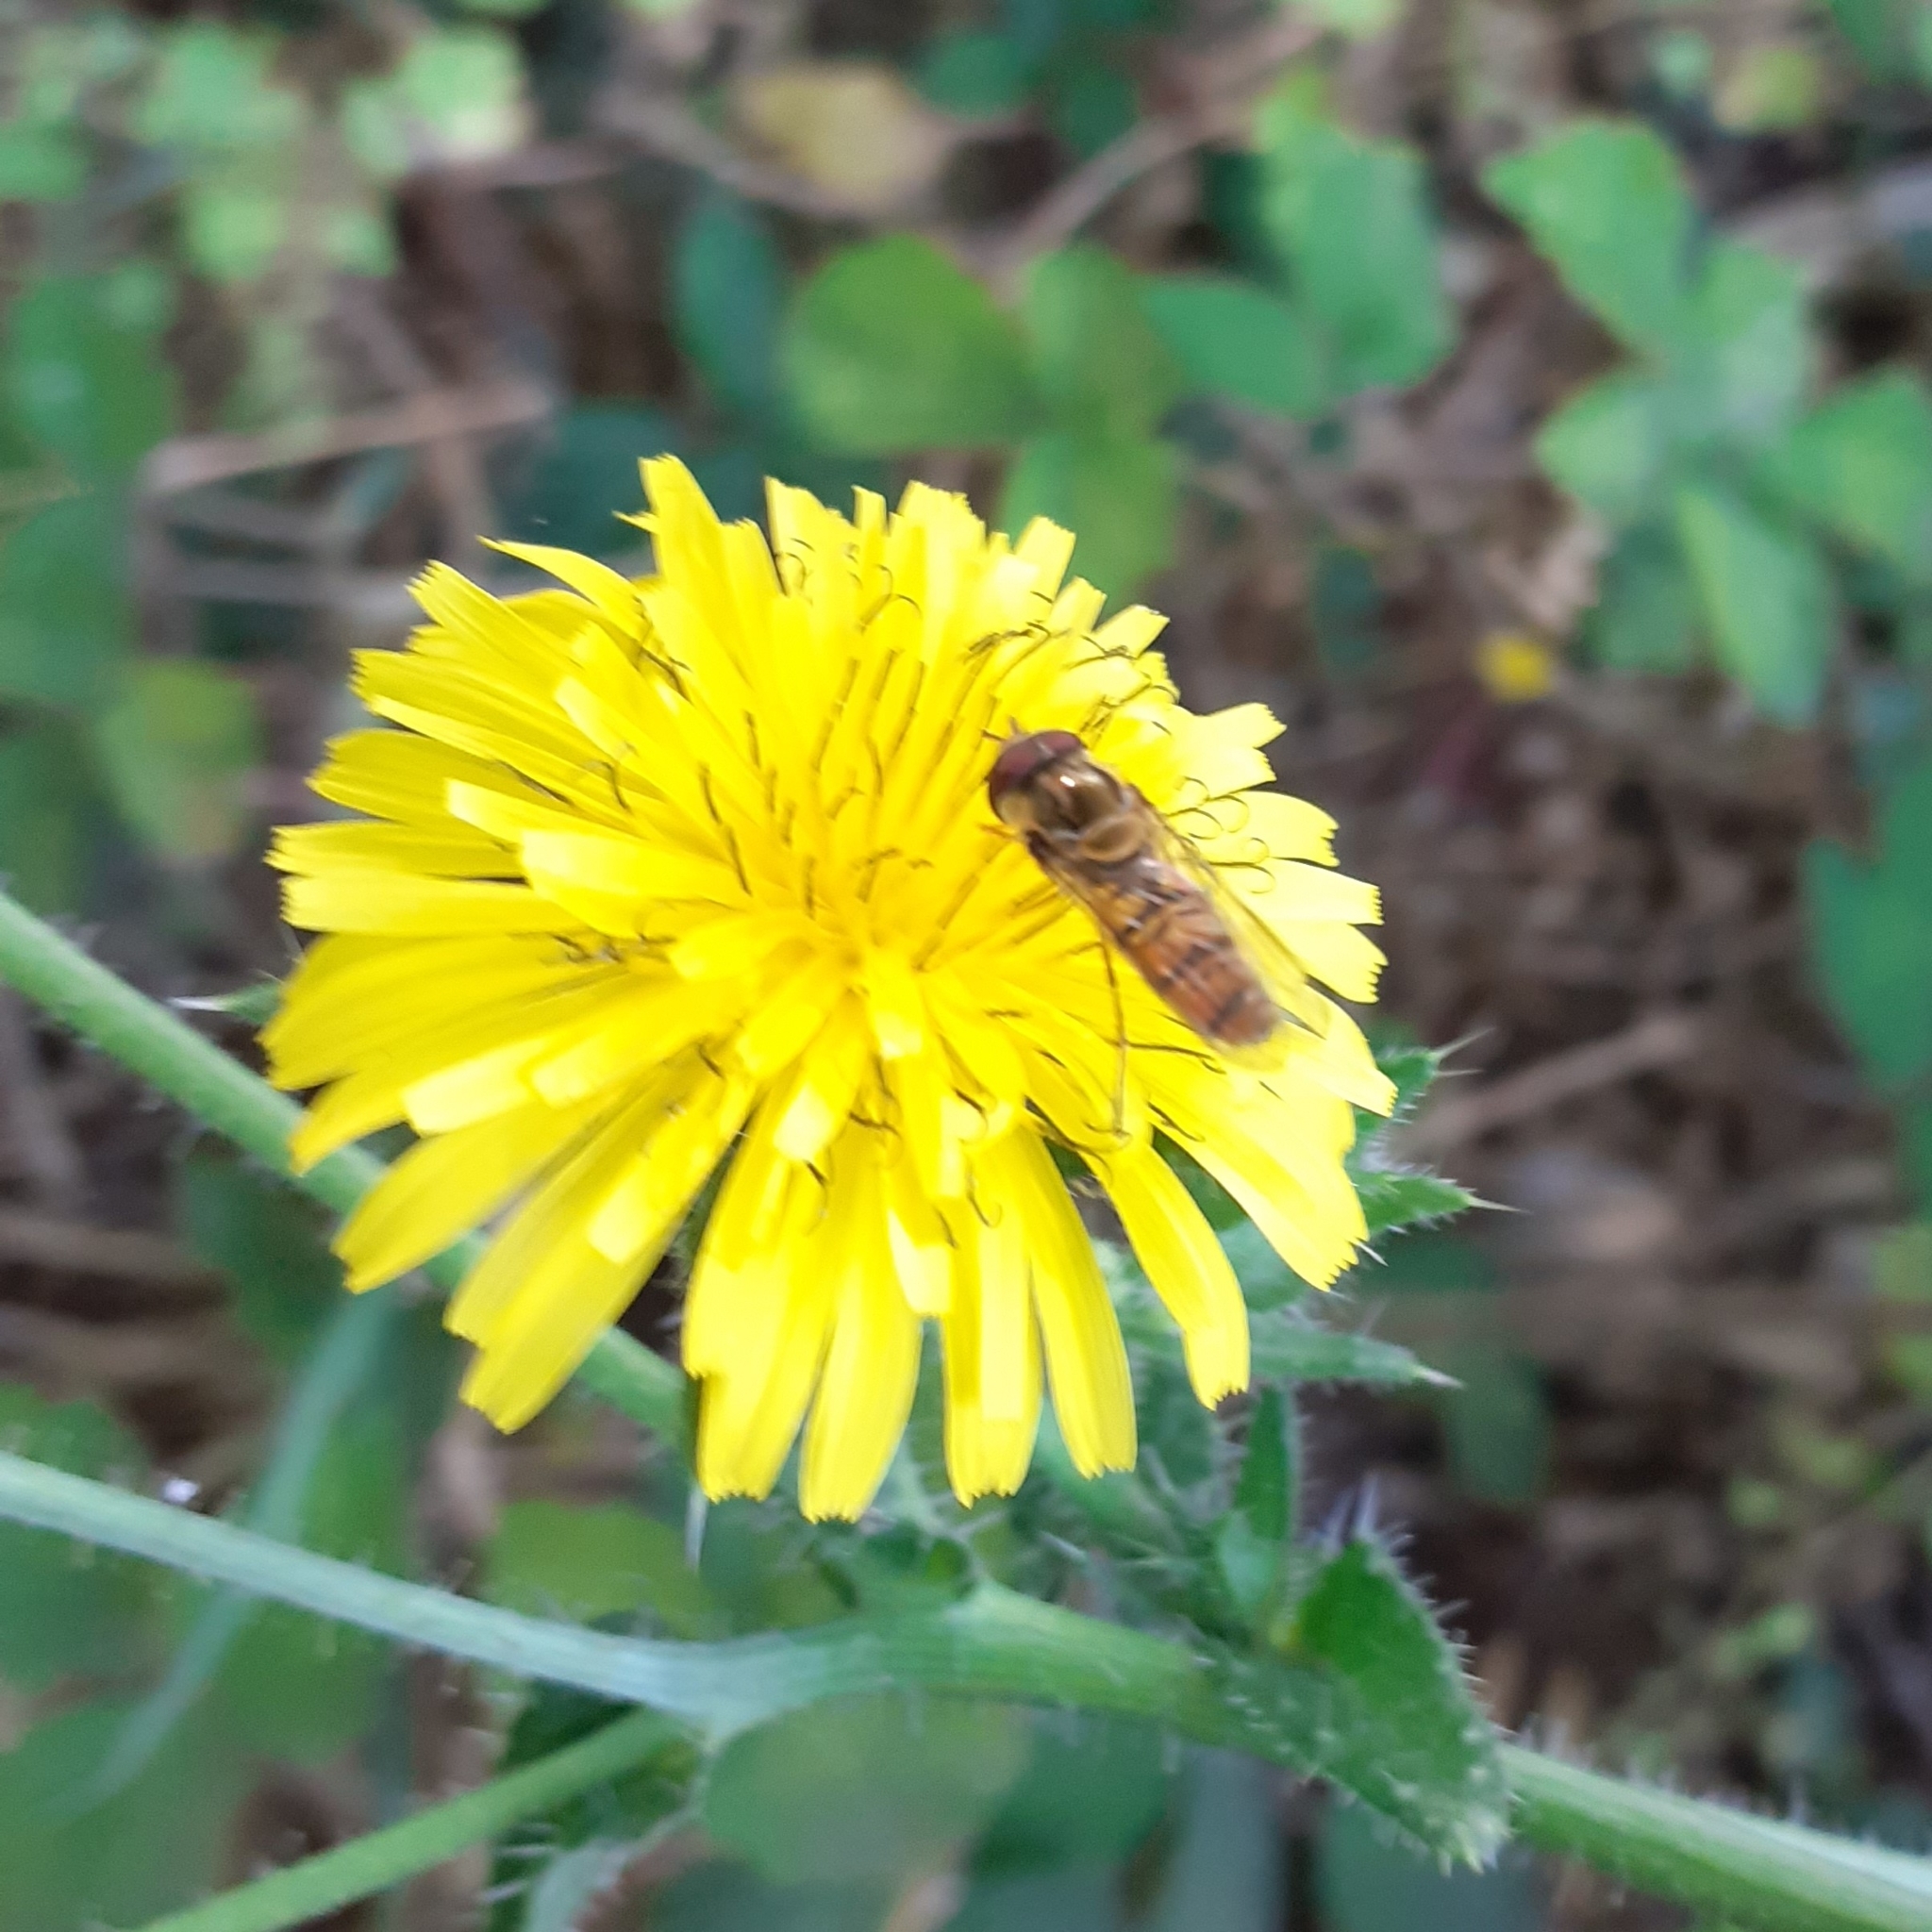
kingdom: Animalia
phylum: Arthropoda
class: Insecta
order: Diptera
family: Syrphidae
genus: Episyrphus
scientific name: Episyrphus balteatus
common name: Marmalade hoverfly
